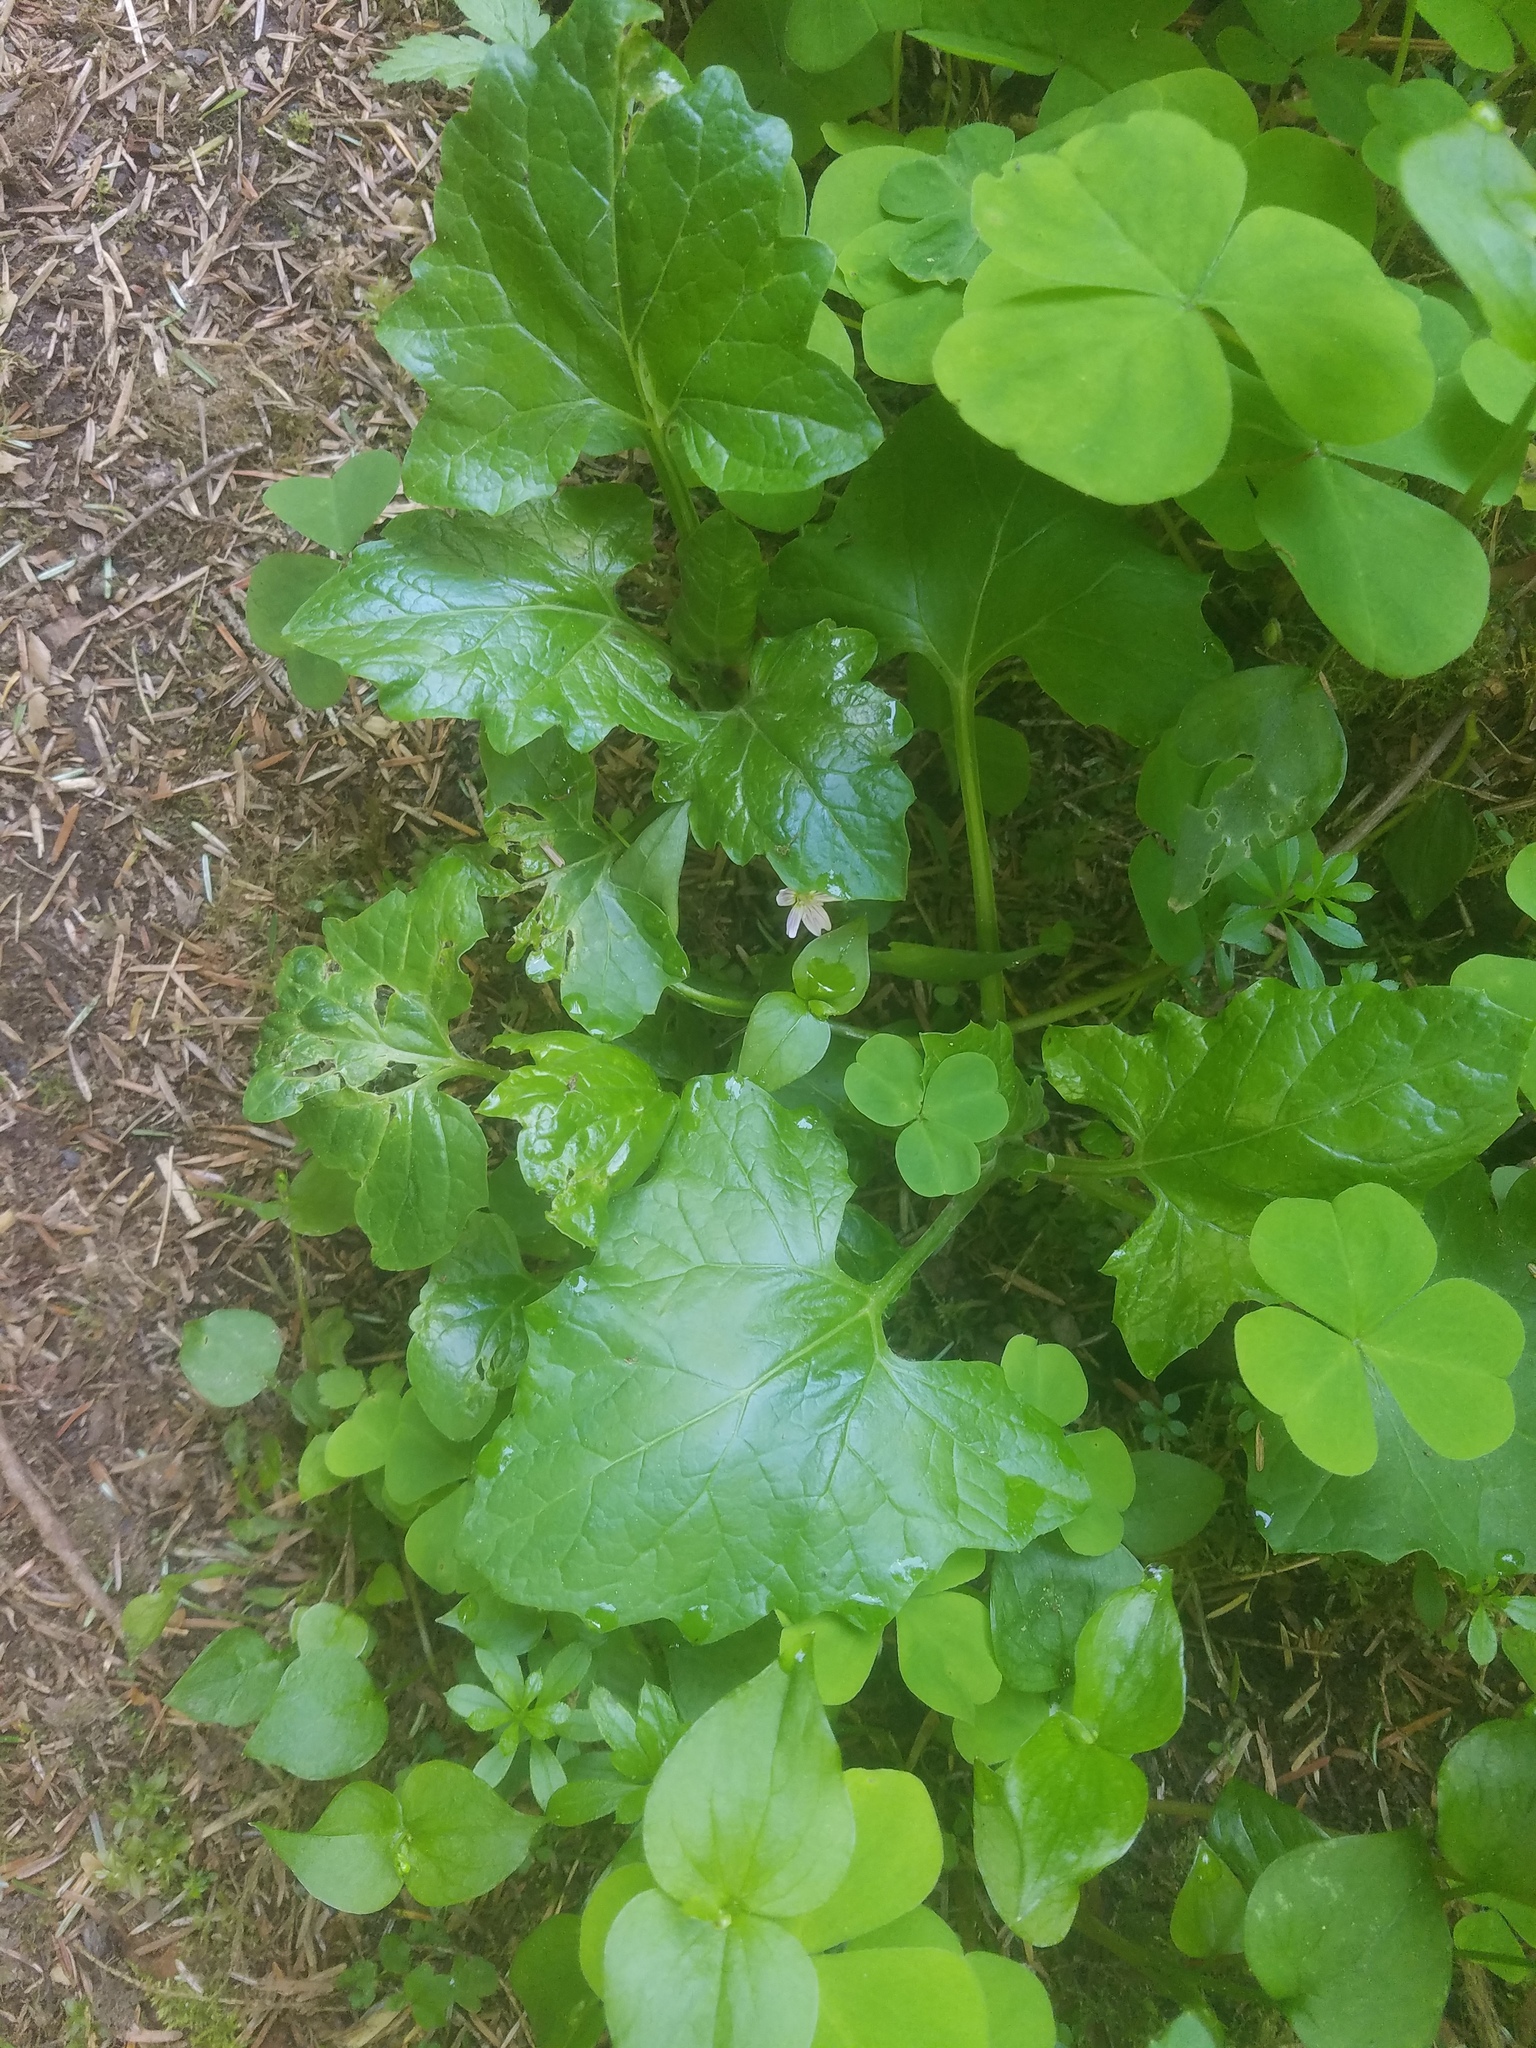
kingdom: Plantae
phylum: Tracheophyta
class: Magnoliopsida
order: Asterales
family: Asteraceae
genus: Adenocaulon
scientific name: Adenocaulon bicolor
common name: Trailplant
